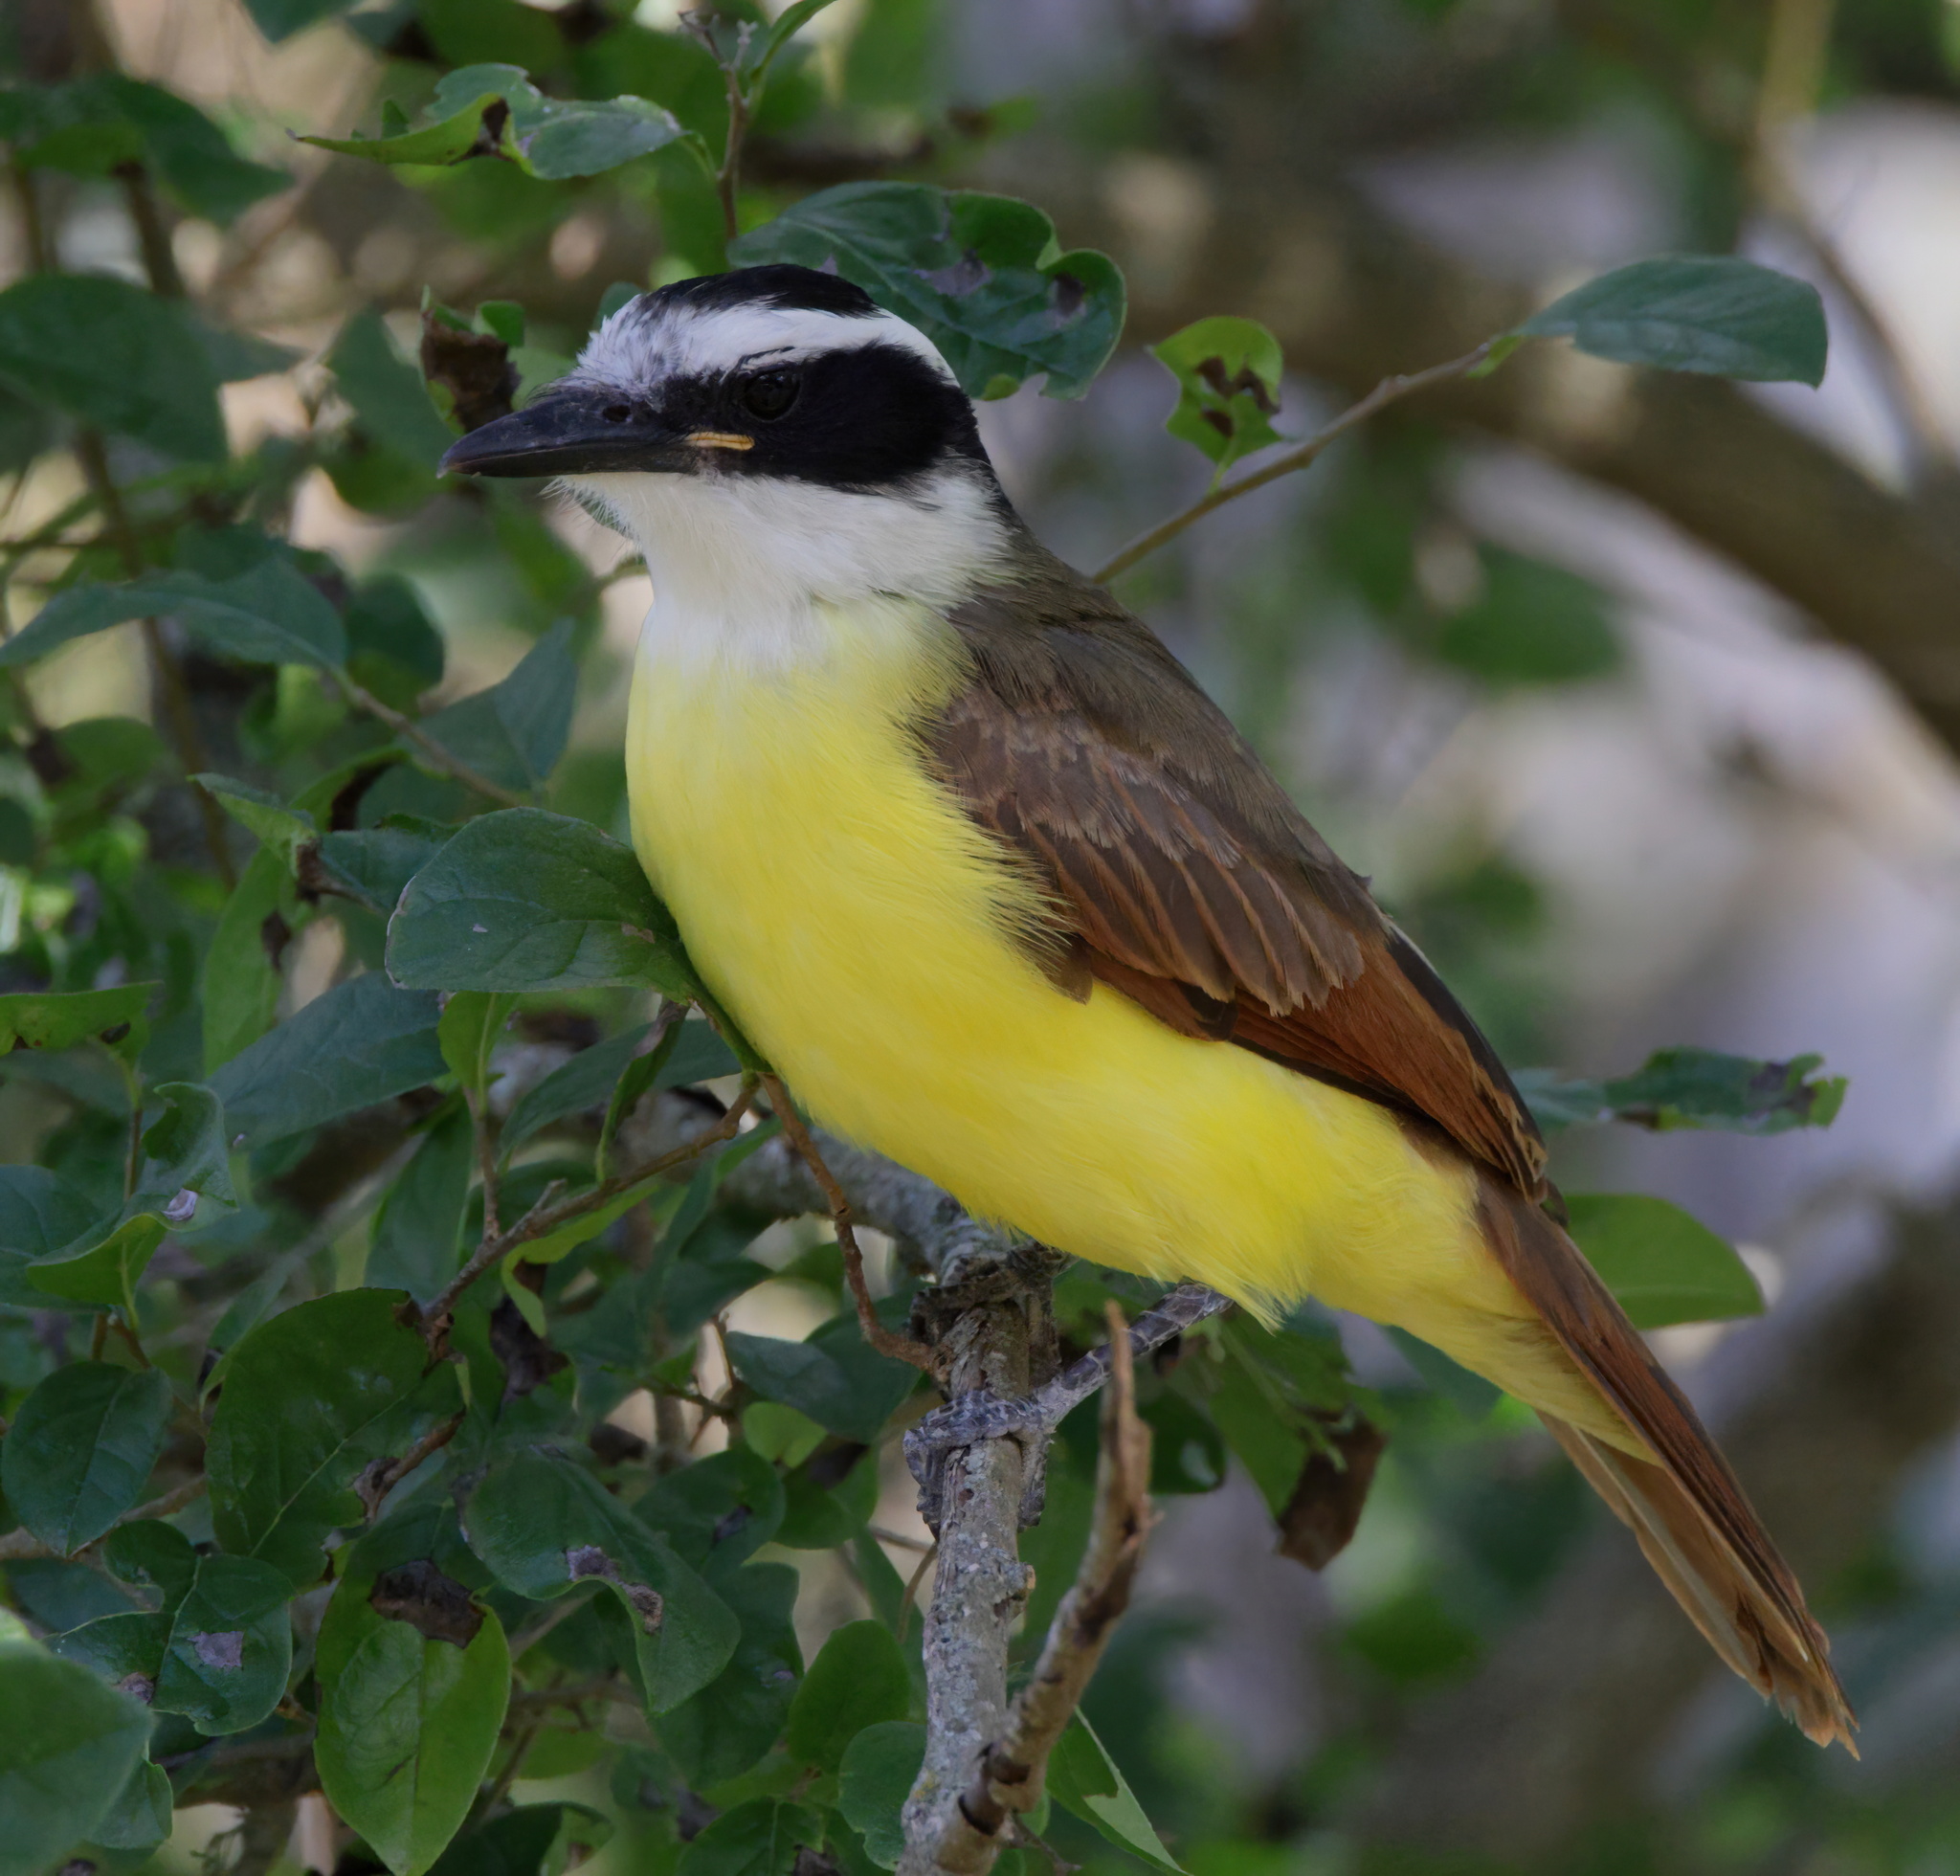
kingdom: Animalia
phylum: Chordata
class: Aves
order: Passeriformes
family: Tyrannidae
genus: Pitangus
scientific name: Pitangus sulphuratus
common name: Great kiskadee
